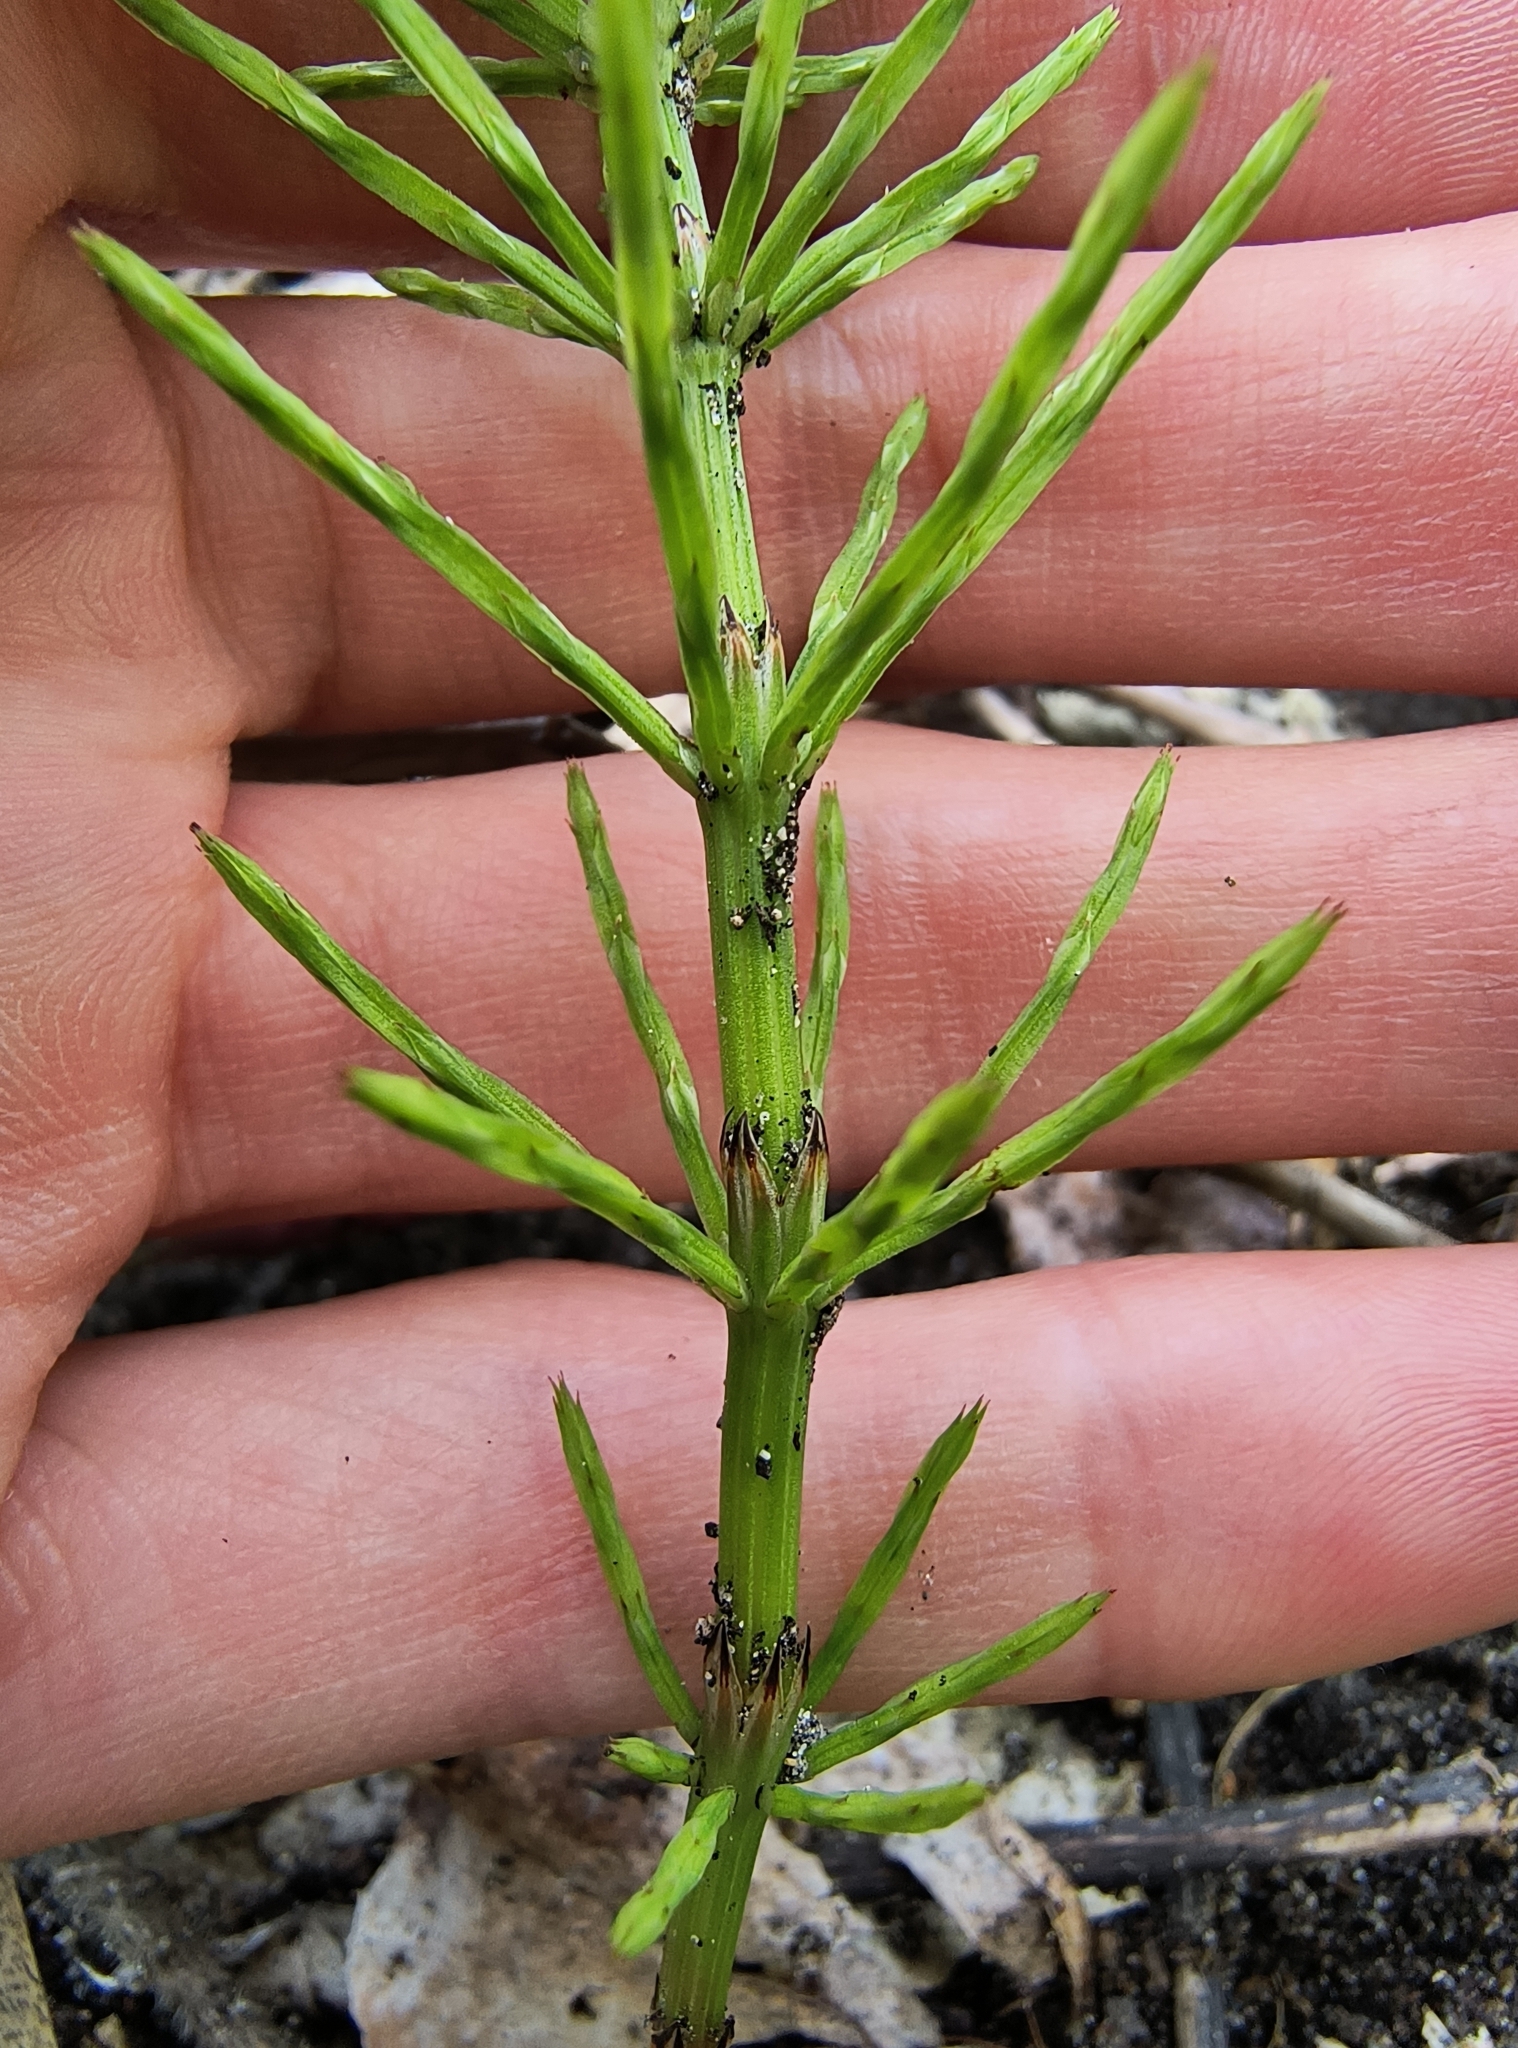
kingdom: Plantae
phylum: Tracheophyta
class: Polypodiopsida
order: Equisetales
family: Equisetaceae
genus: Equisetum
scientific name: Equisetum arvense
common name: Field horsetail
